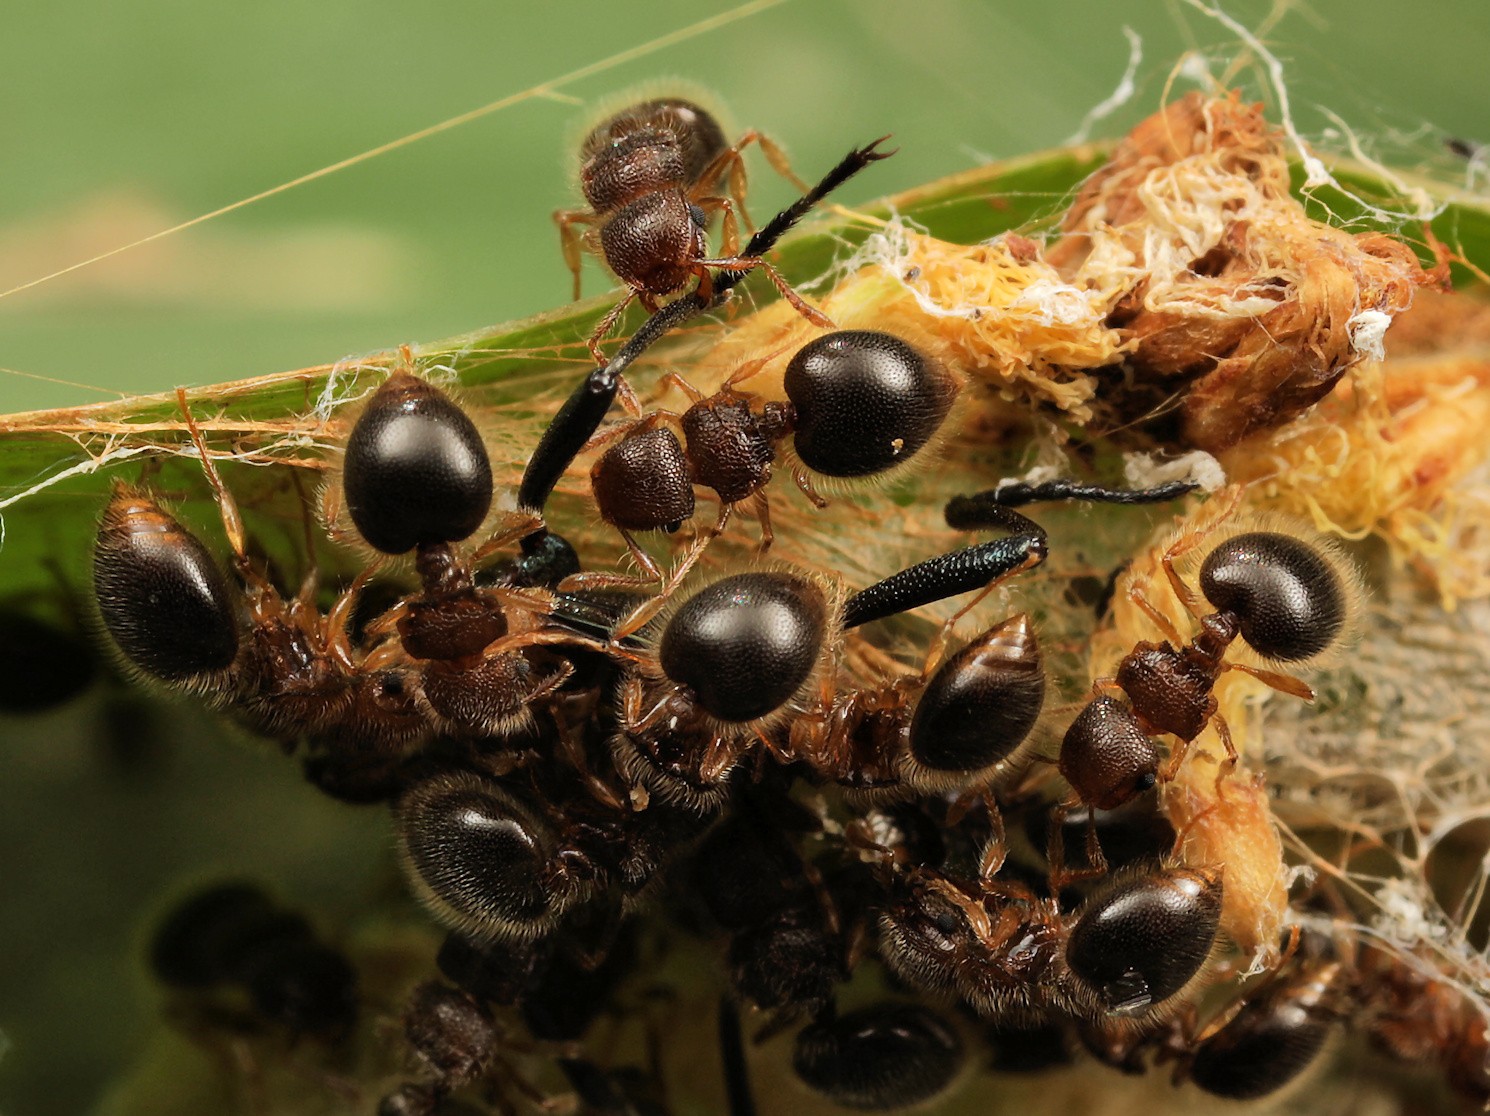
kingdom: Animalia
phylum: Arthropoda
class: Insecta
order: Hymenoptera
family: Formicidae
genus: Meranoplus
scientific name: Meranoplus inermis
